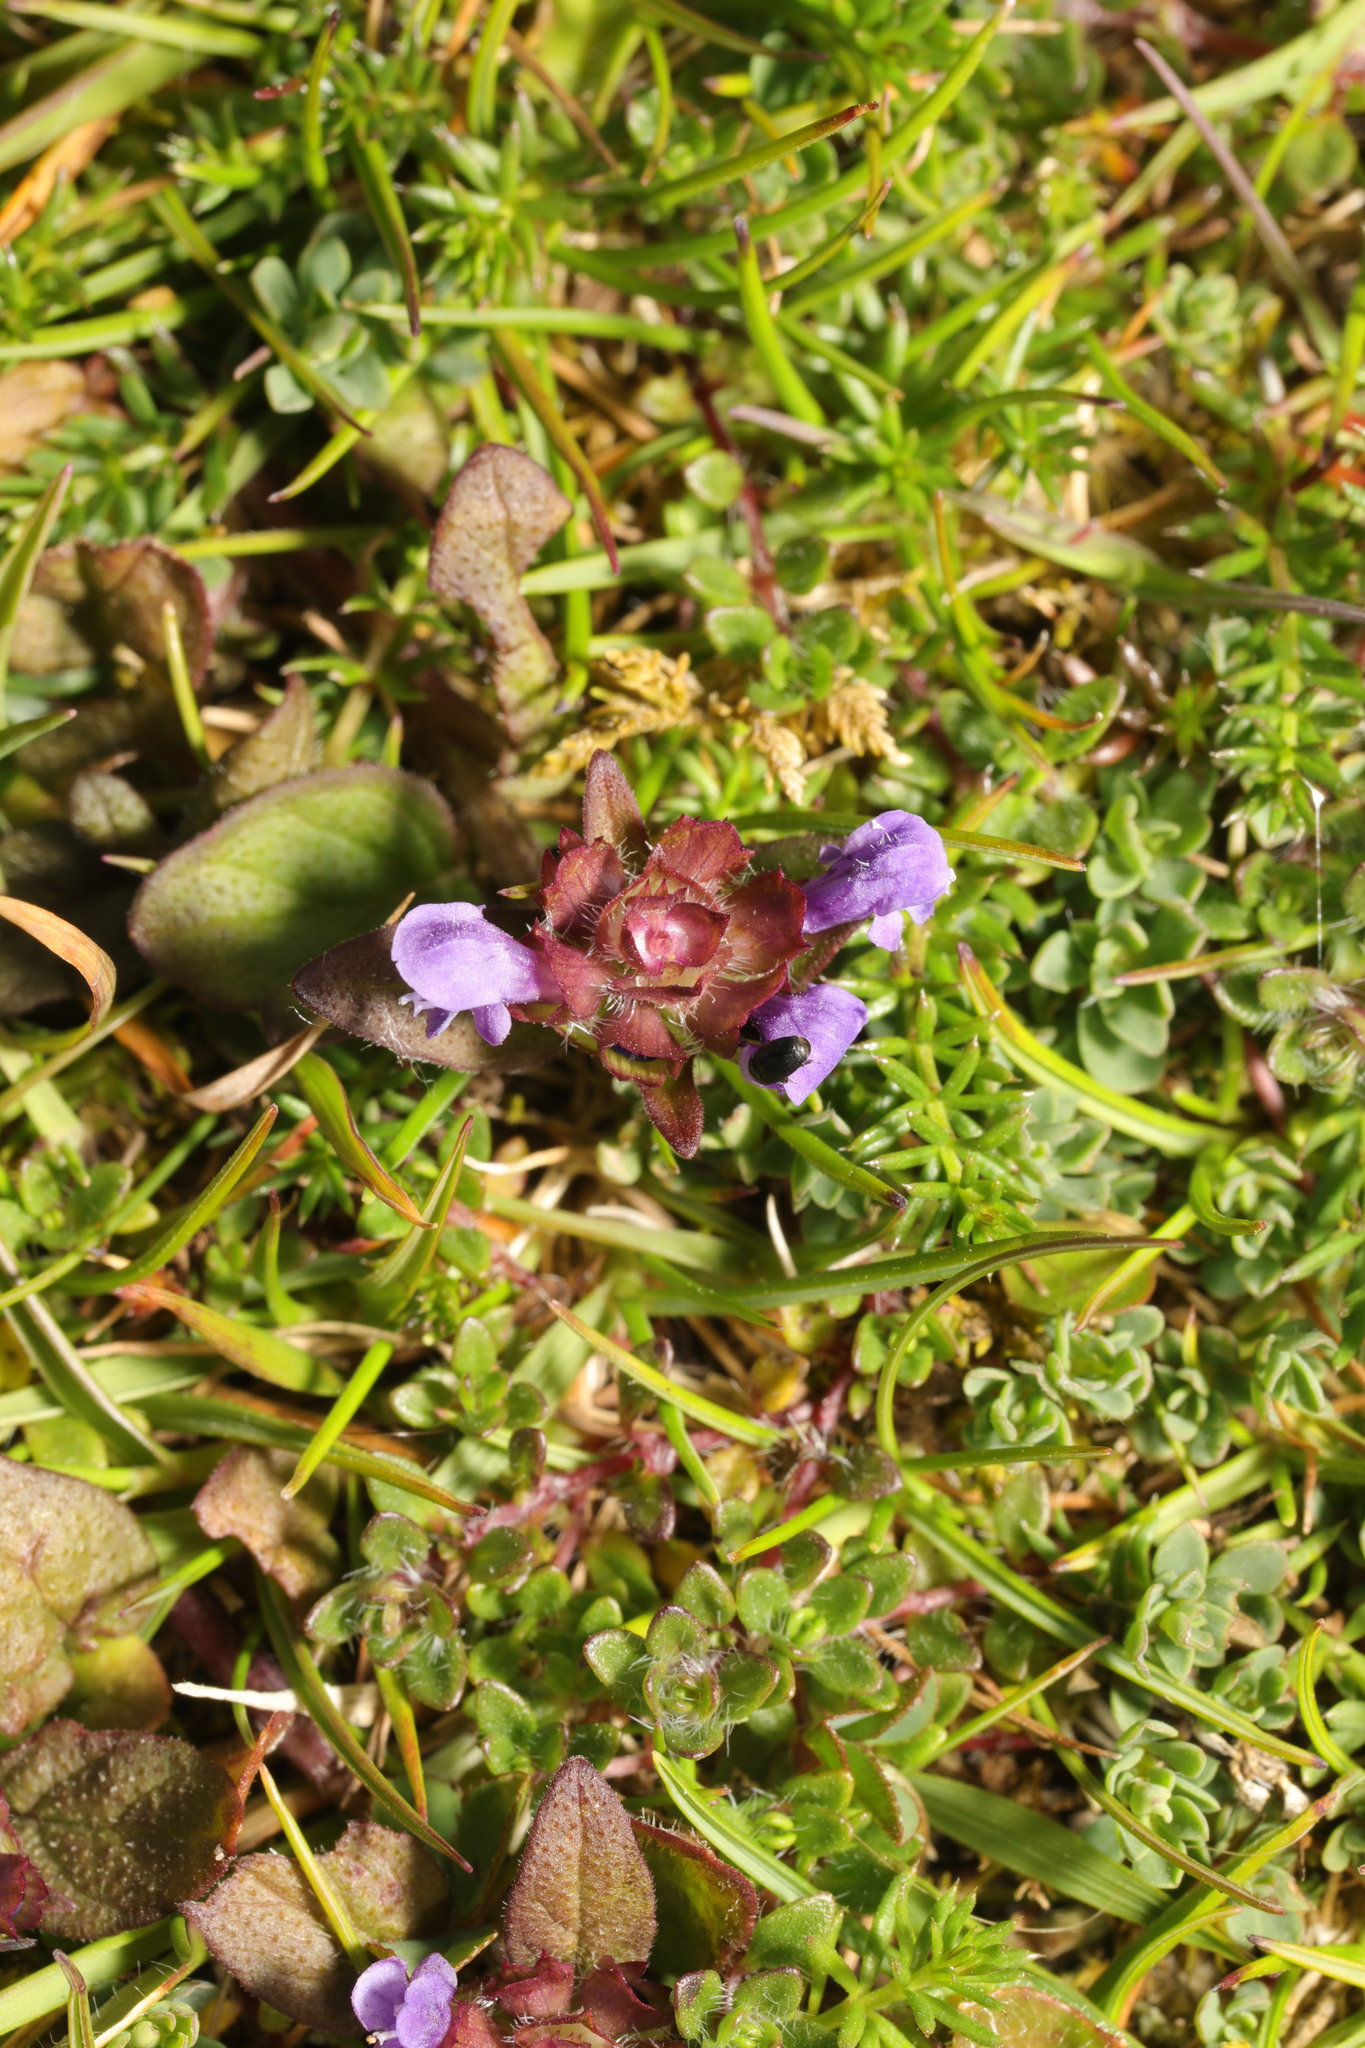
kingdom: Plantae
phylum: Tracheophyta
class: Magnoliopsida
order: Lamiales
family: Lamiaceae
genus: Prunella
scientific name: Prunella vulgaris
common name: Heal-all
